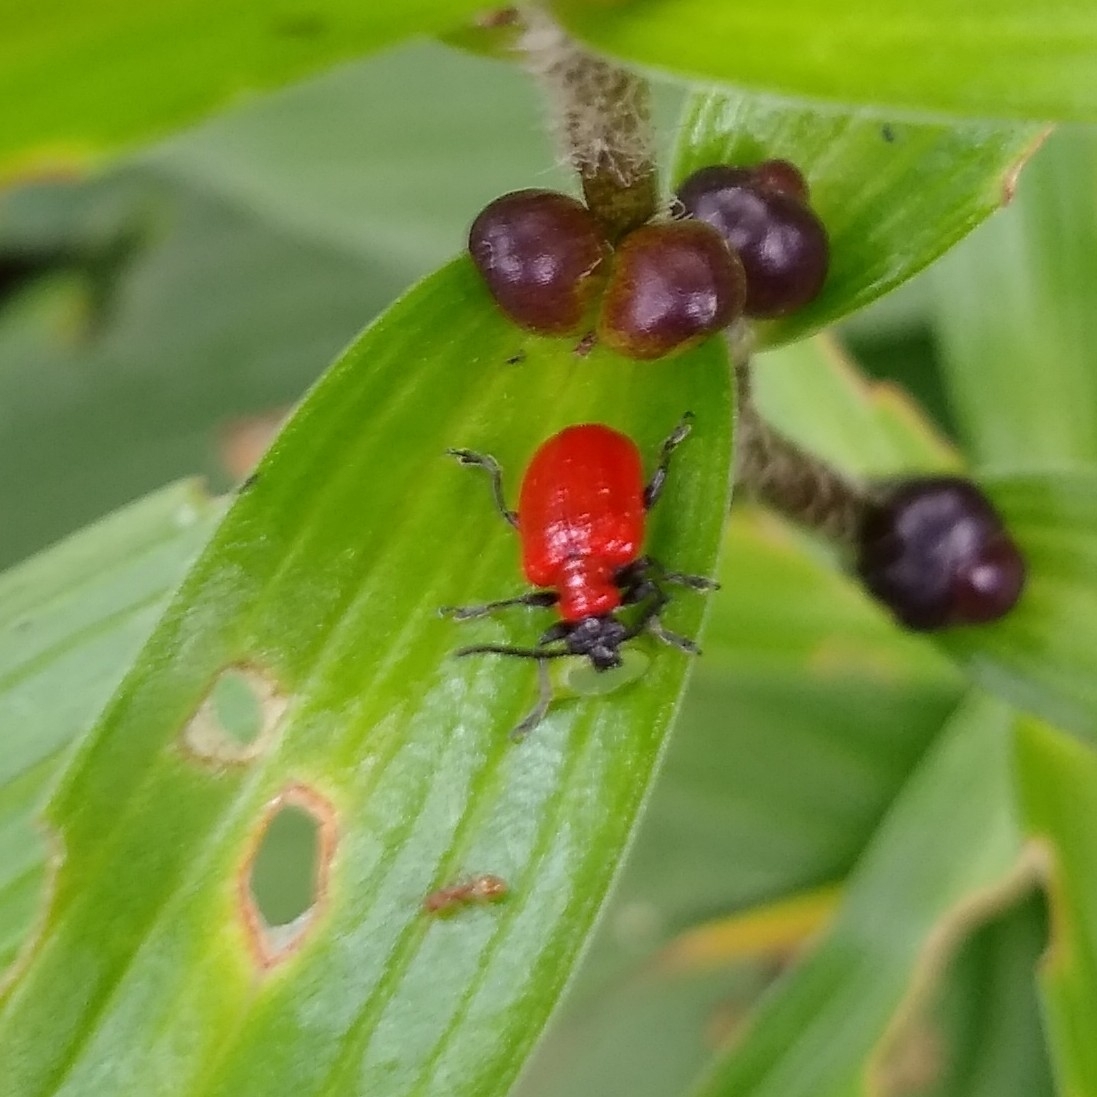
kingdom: Animalia
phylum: Arthropoda
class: Insecta
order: Coleoptera
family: Chrysomelidae
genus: Lilioceris
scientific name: Lilioceris lilii
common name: Lily beetle
